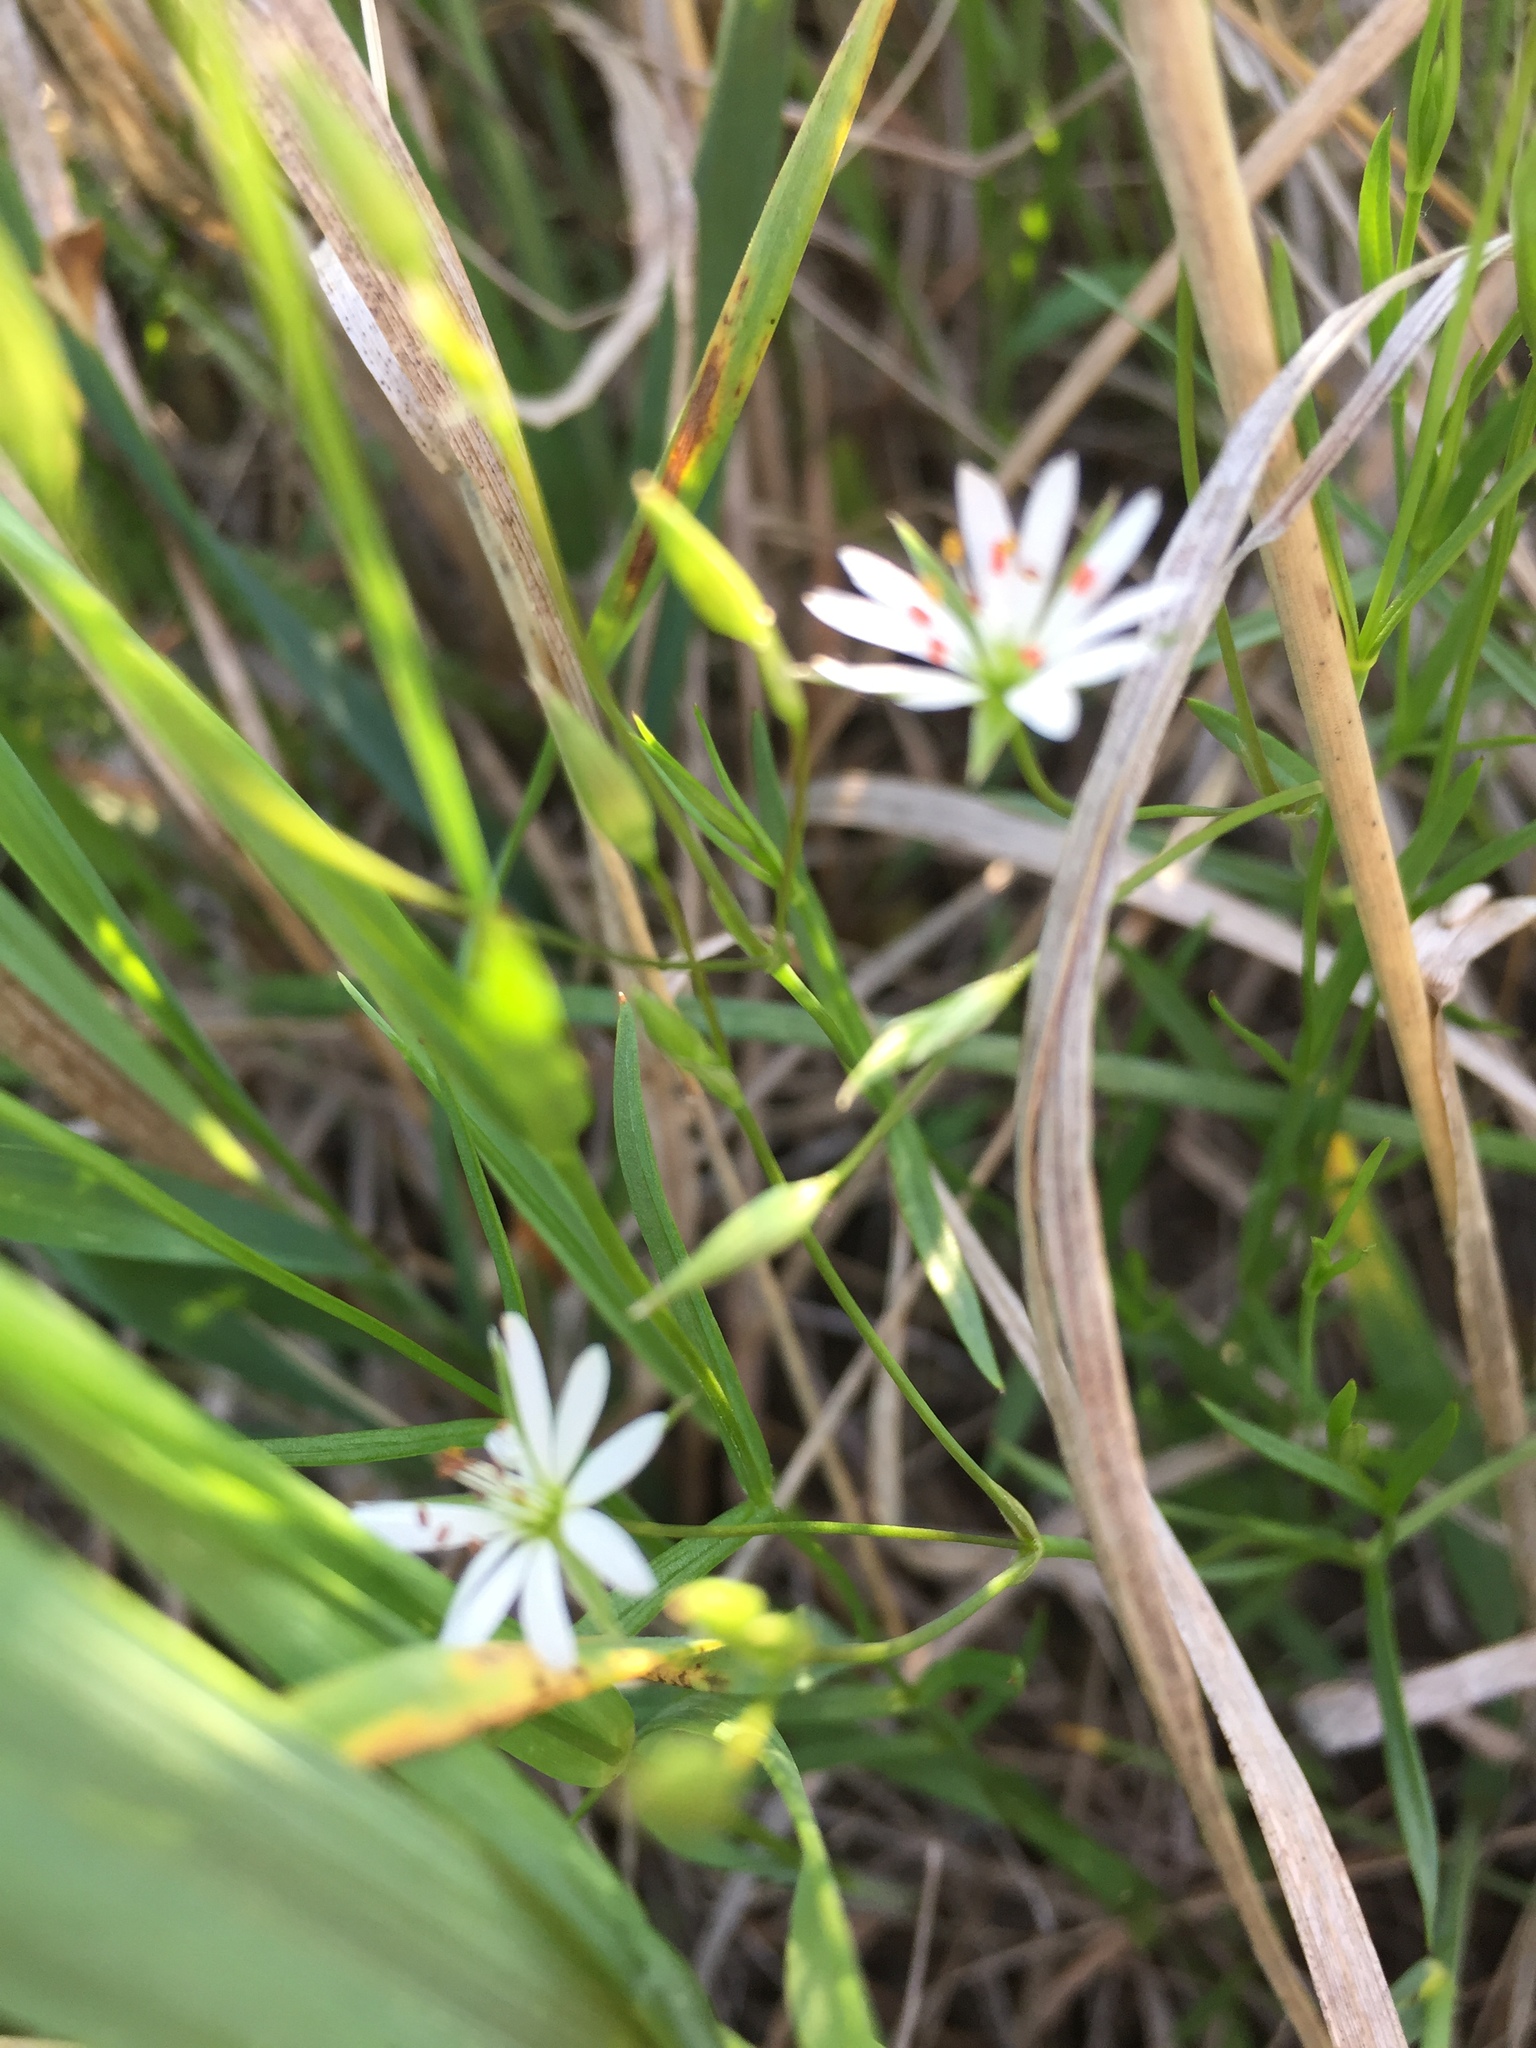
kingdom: Plantae
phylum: Tracheophyta
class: Magnoliopsida
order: Caryophyllales
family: Caryophyllaceae
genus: Stellaria
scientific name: Stellaria graminea
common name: Grass-like starwort
